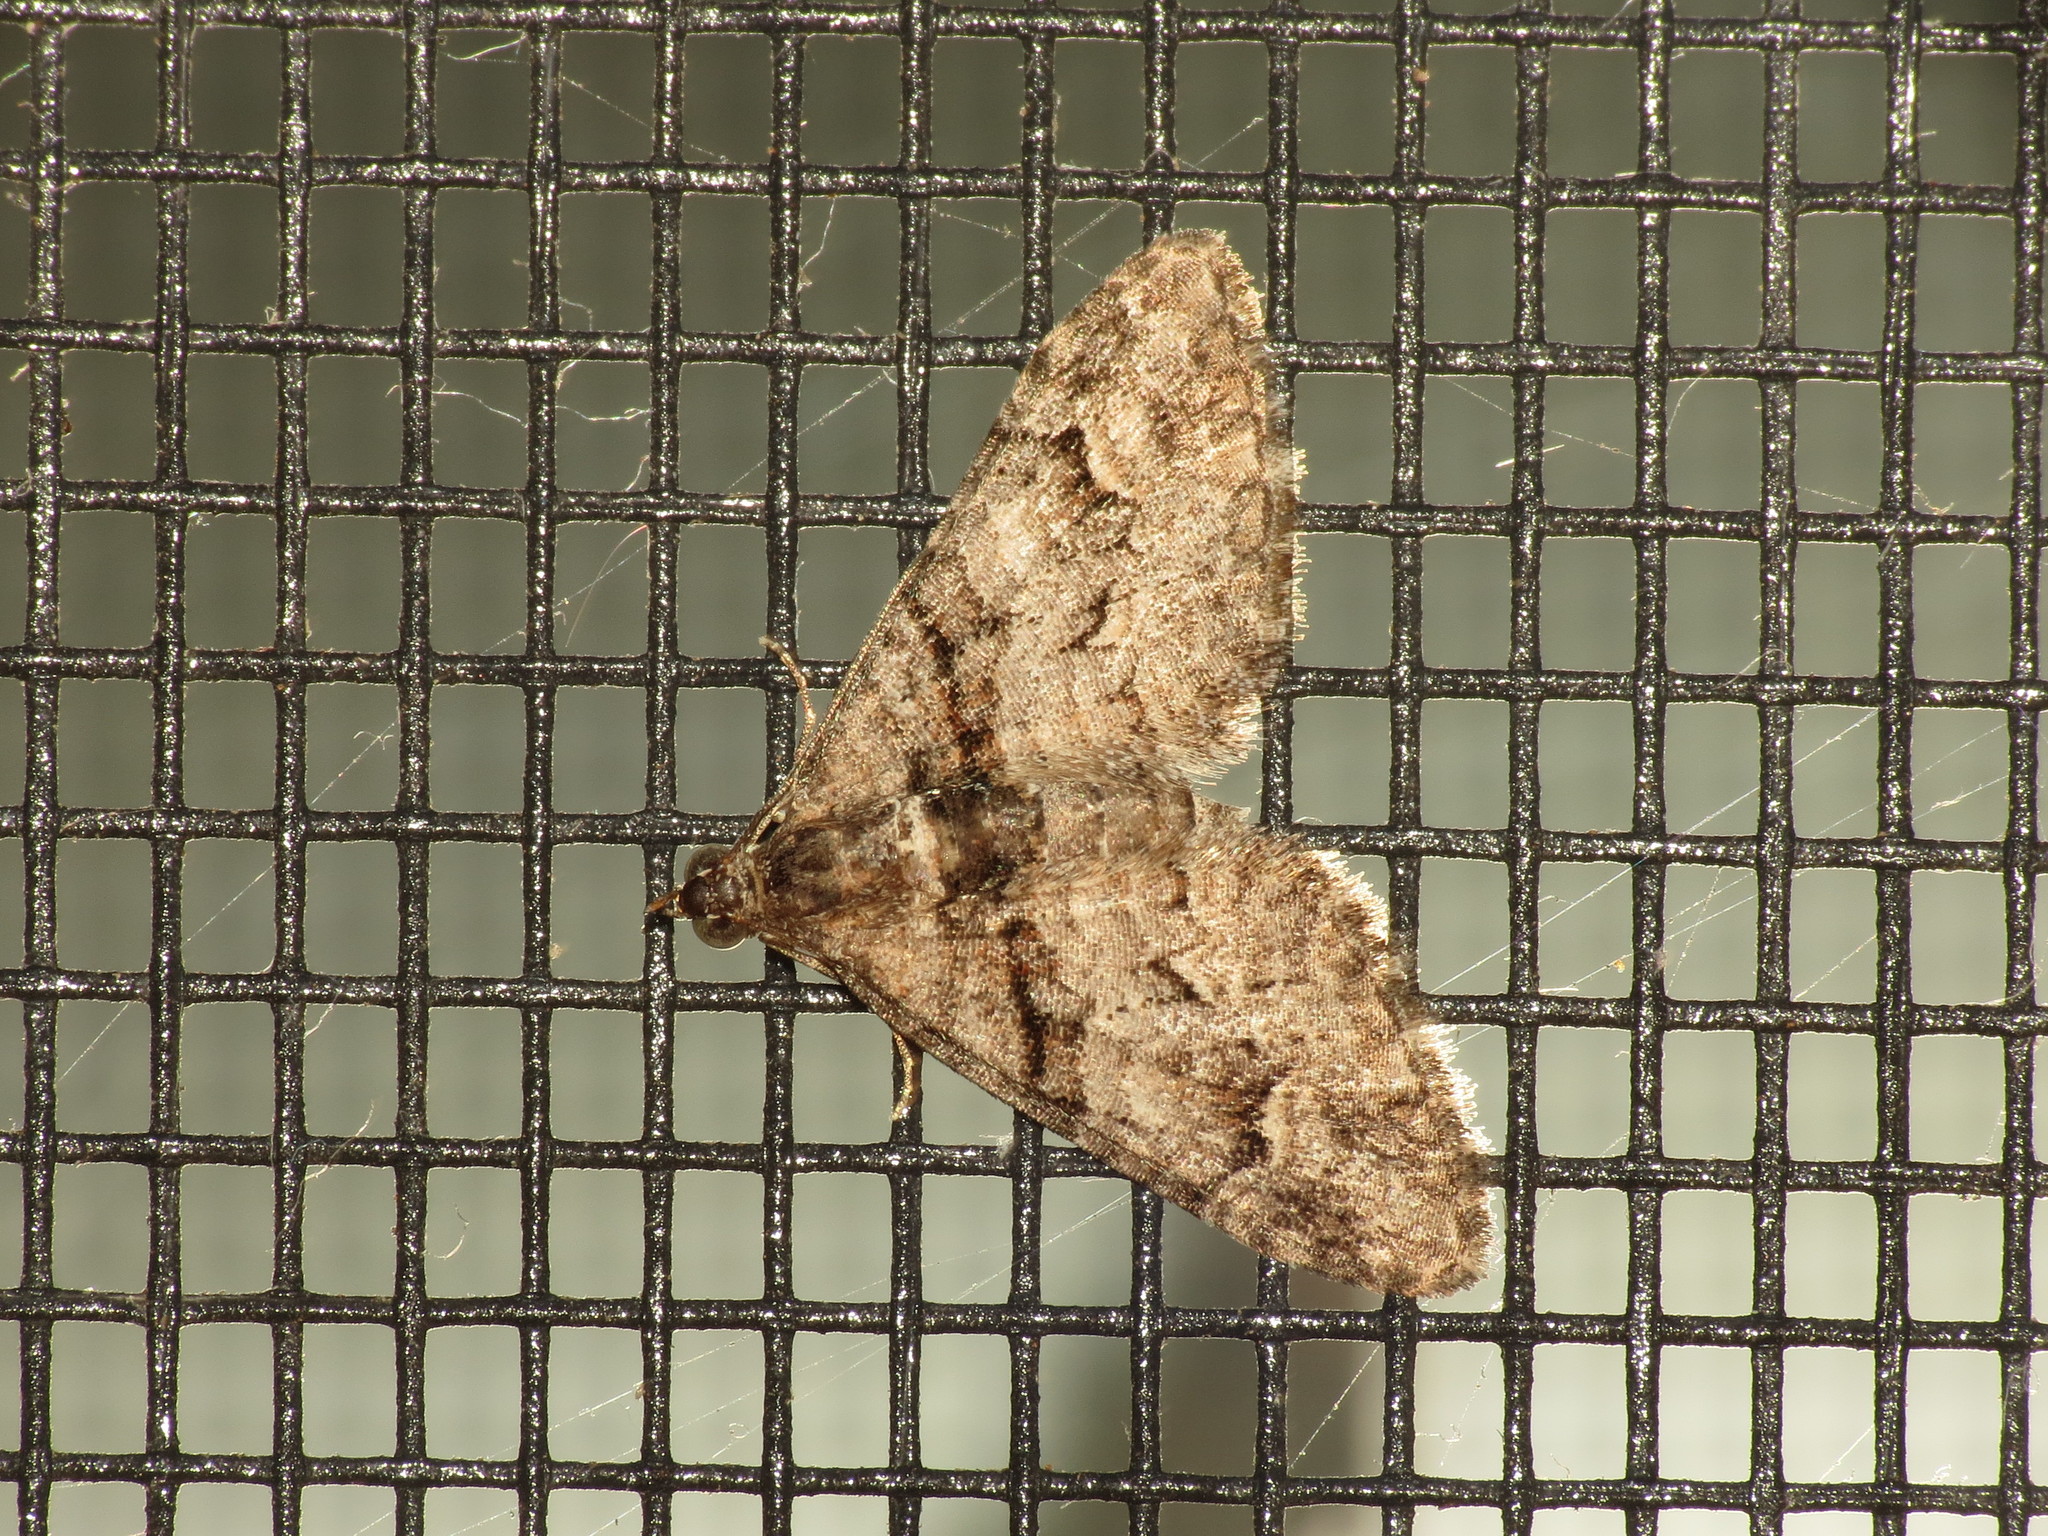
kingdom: Animalia
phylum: Arthropoda
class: Insecta
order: Lepidoptera
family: Geometridae
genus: Phrissogonus
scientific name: Phrissogonus laticostata
